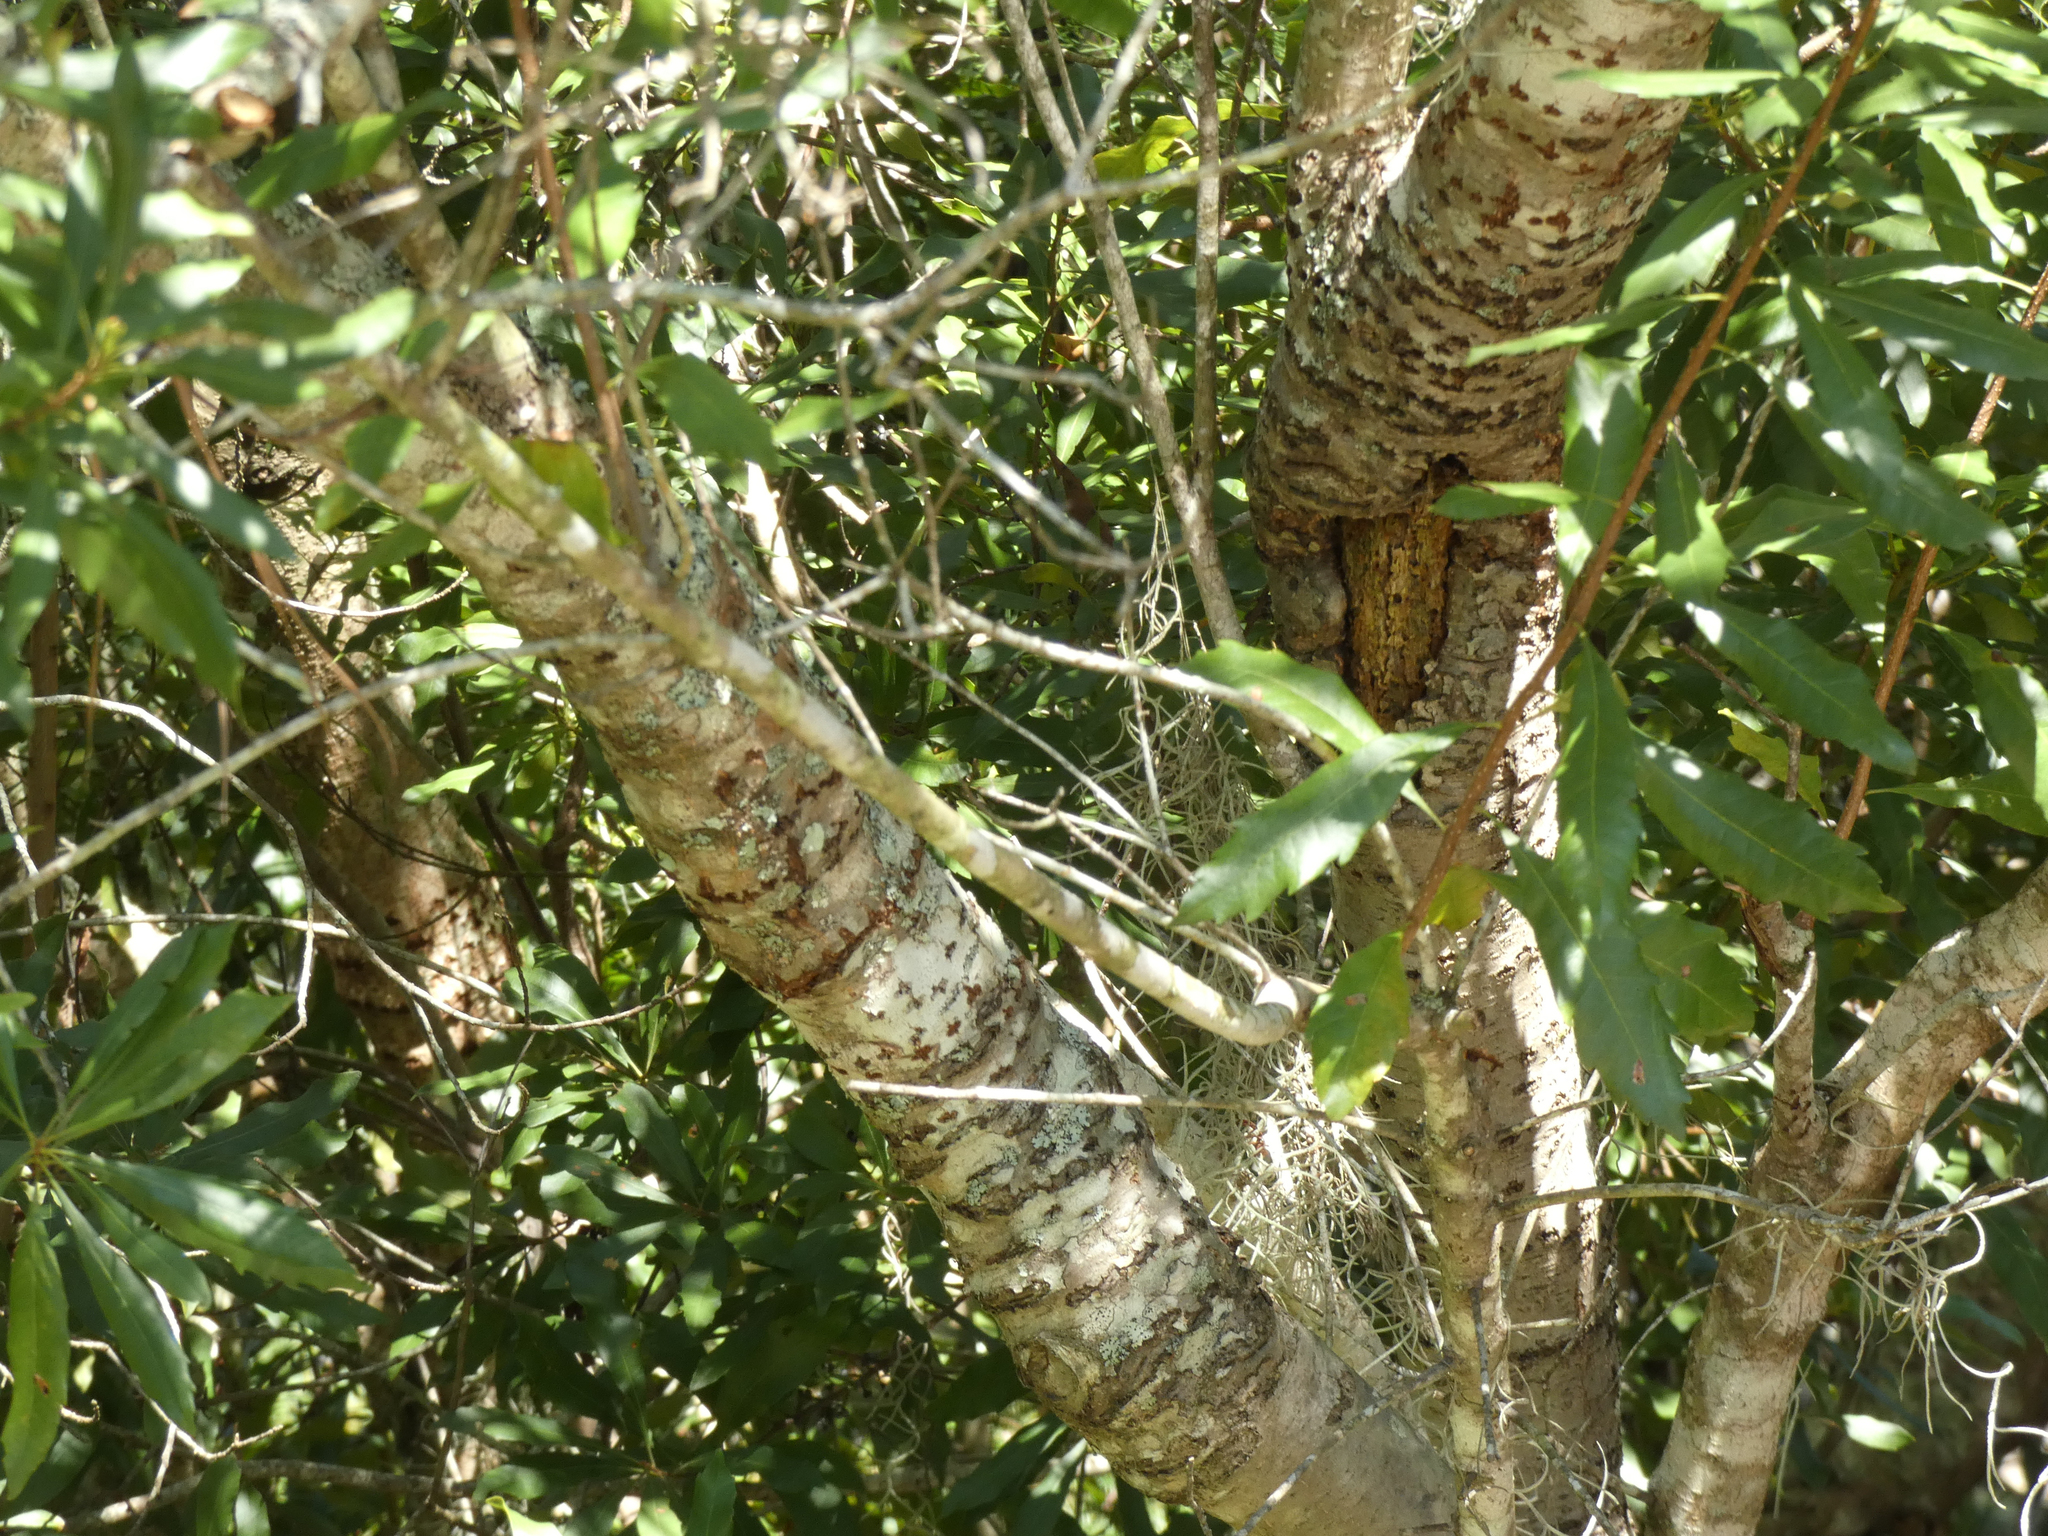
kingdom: Plantae
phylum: Tracheophyta
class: Magnoliopsida
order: Fagales
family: Myricaceae
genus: Morella
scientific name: Morella cerifera
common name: Wax myrtle
